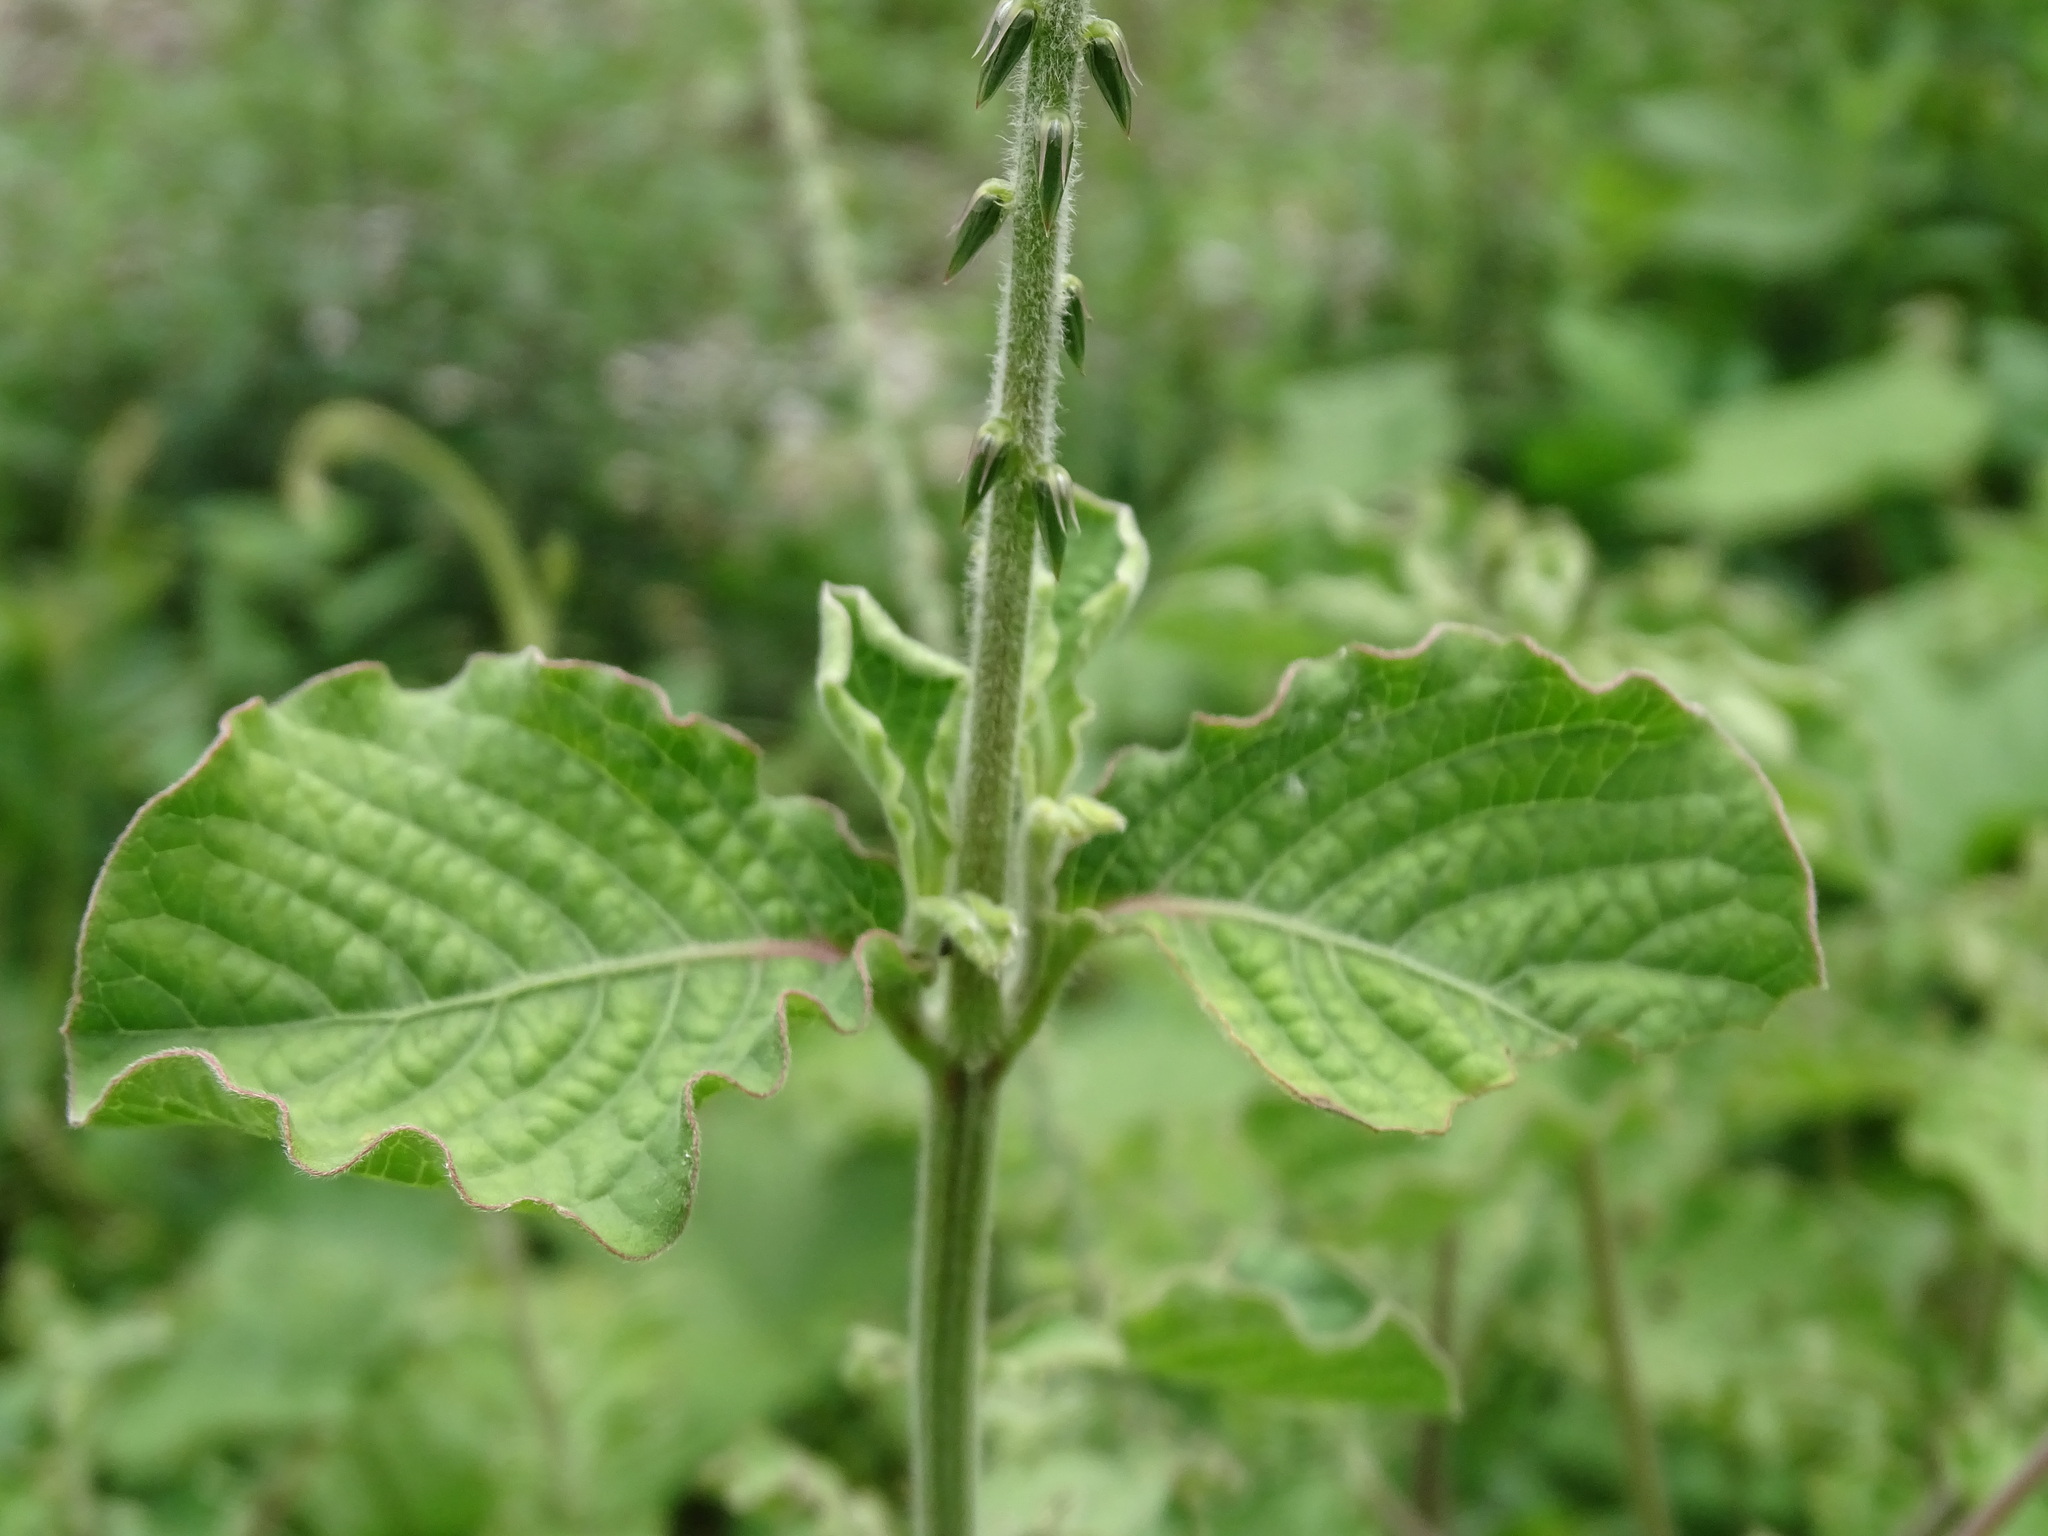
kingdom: Plantae
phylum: Tracheophyta
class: Magnoliopsida
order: Caryophyllales
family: Amaranthaceae
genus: Achyranthes
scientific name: Achyranthes aspera
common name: Devil's horsewhip
